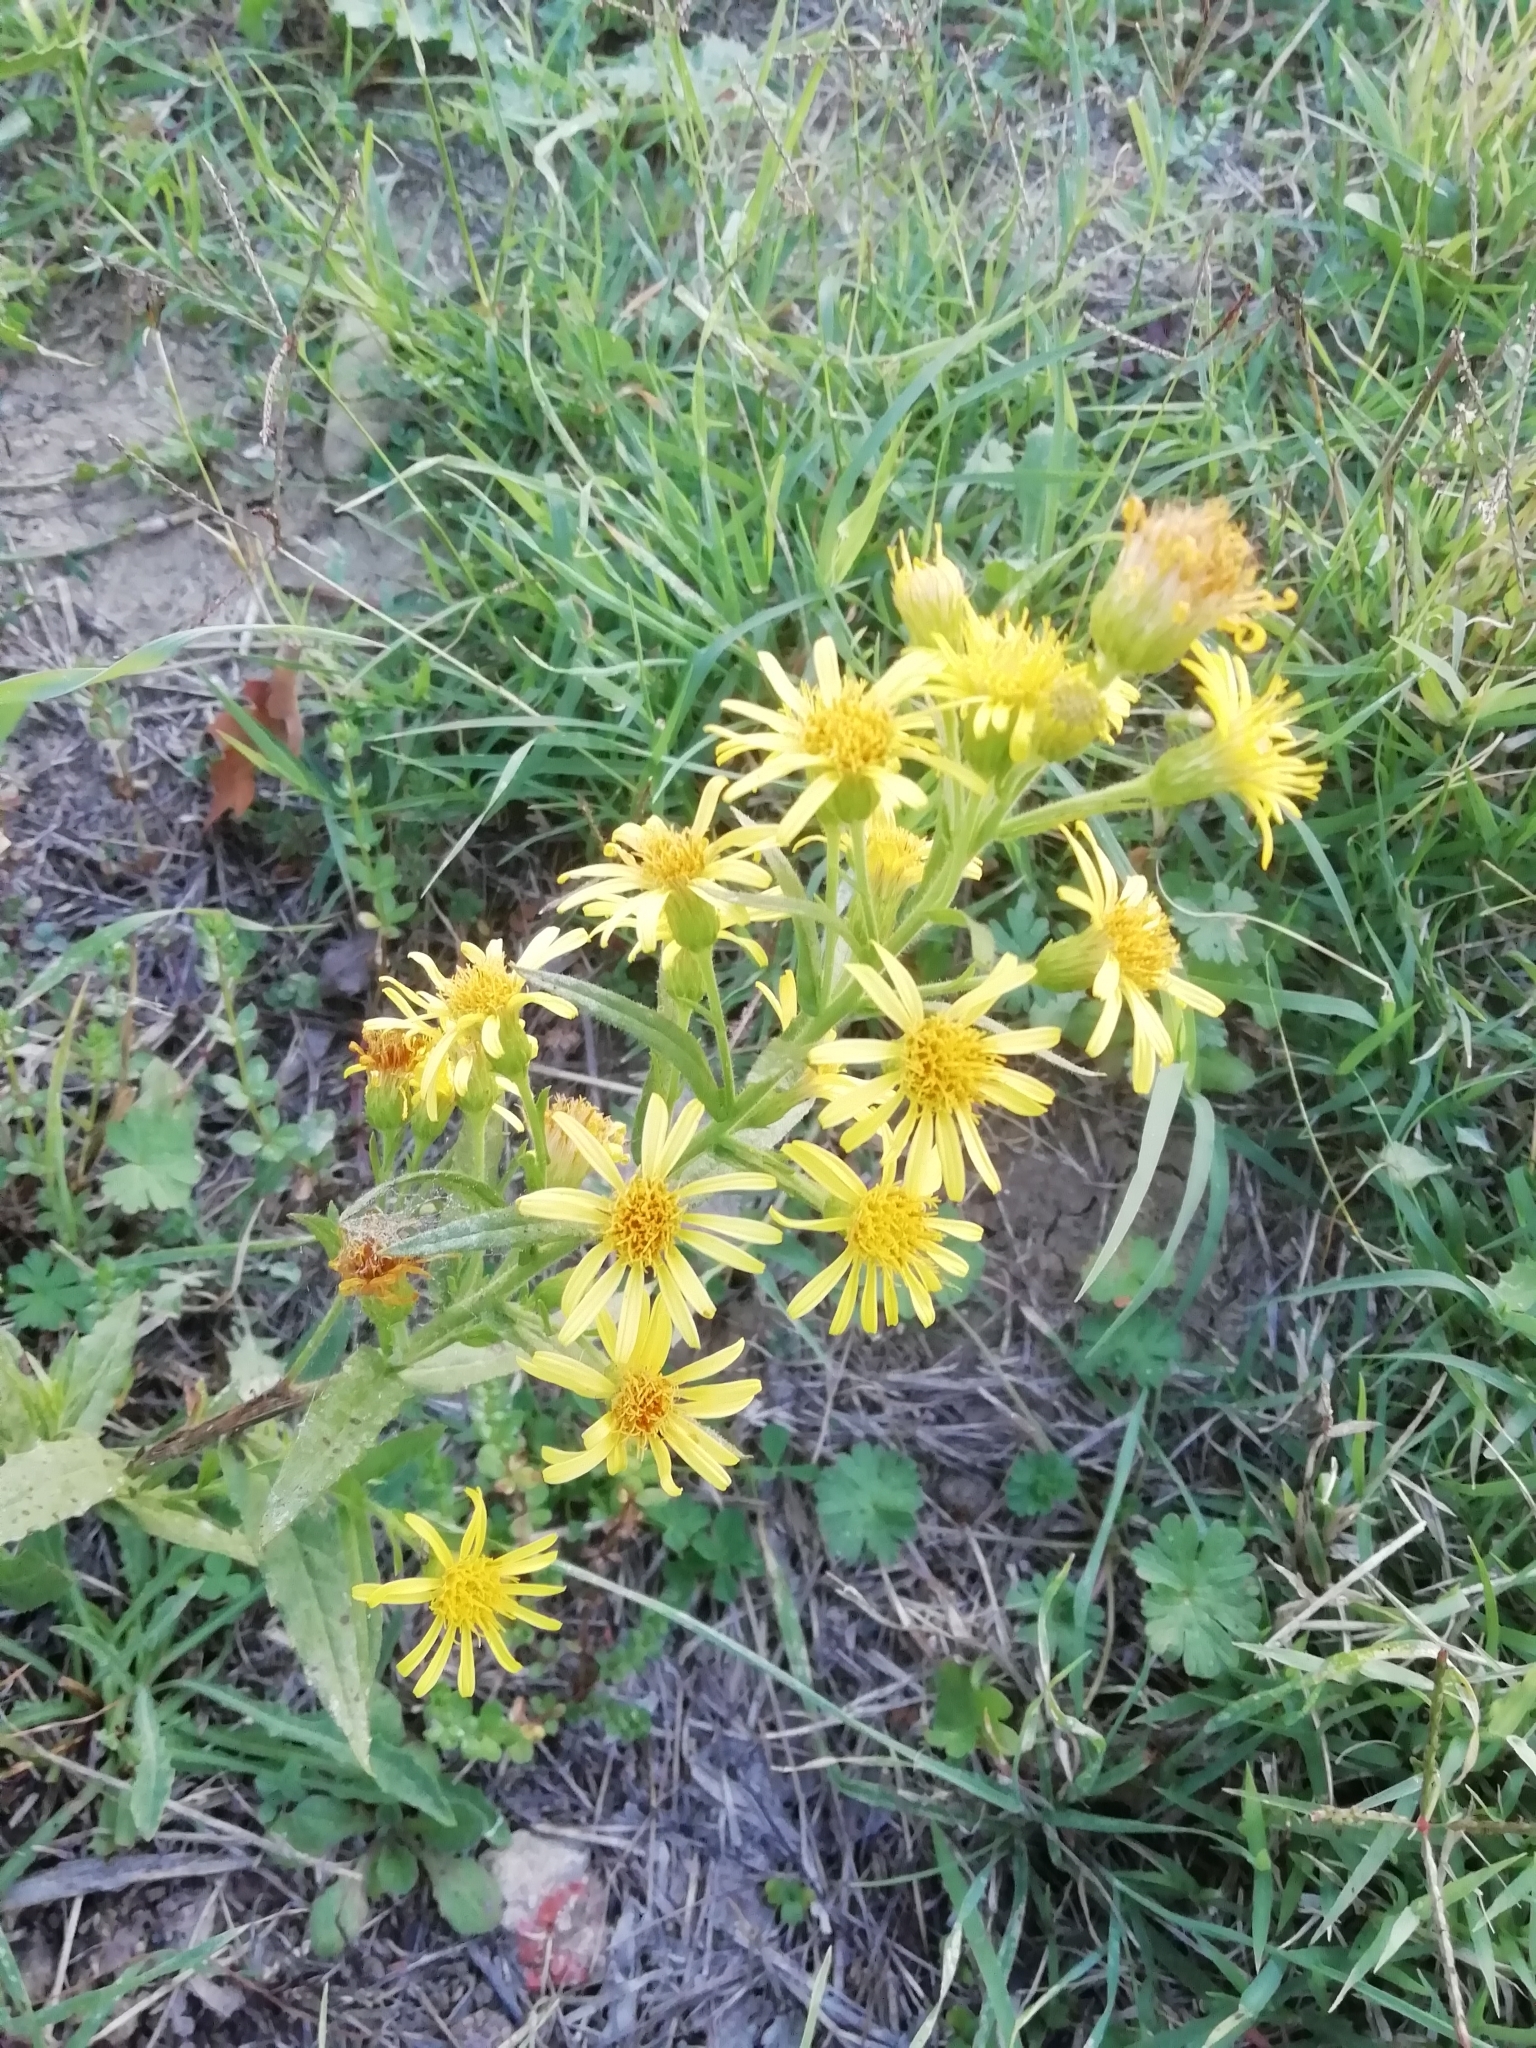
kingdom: Plantae
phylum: Tracheophyta
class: Magnoliopsida
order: Asterales
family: Asteraceae
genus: Dittrichia
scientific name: Dittrichia viscosa
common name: Woody fleabane
